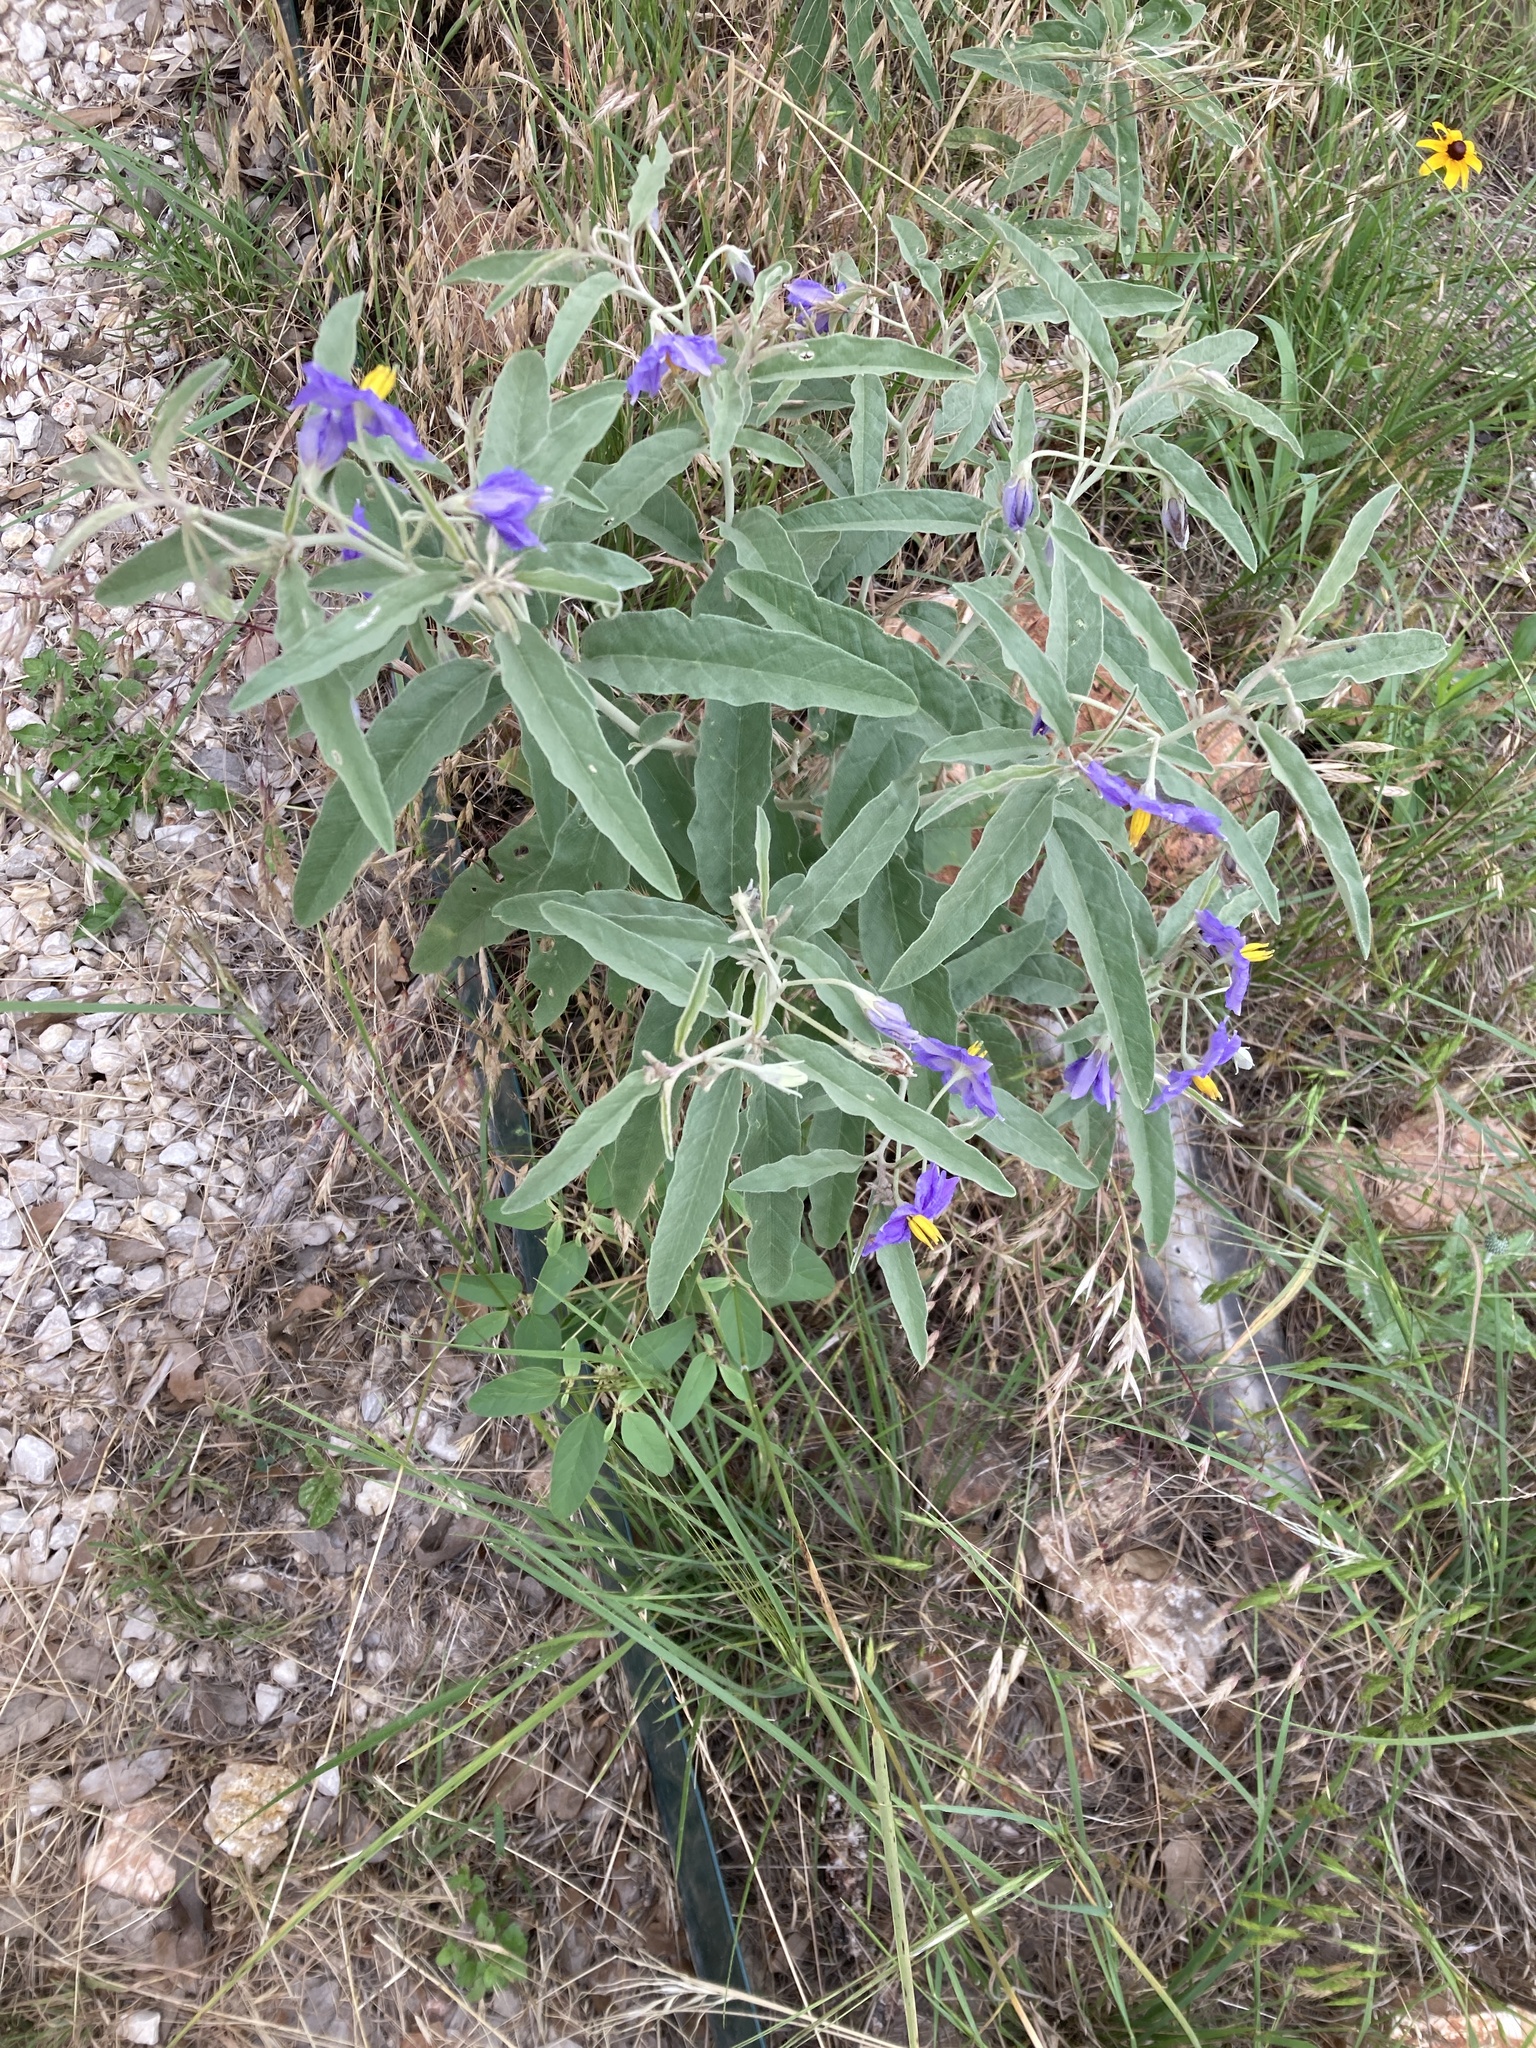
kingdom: Plantae
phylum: Tracheophyta
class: Magnoliopsida
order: Solanales
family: Solanaceae
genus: Solanum
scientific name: Solanum elaeagnifolium
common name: Silverleaf nightshade
